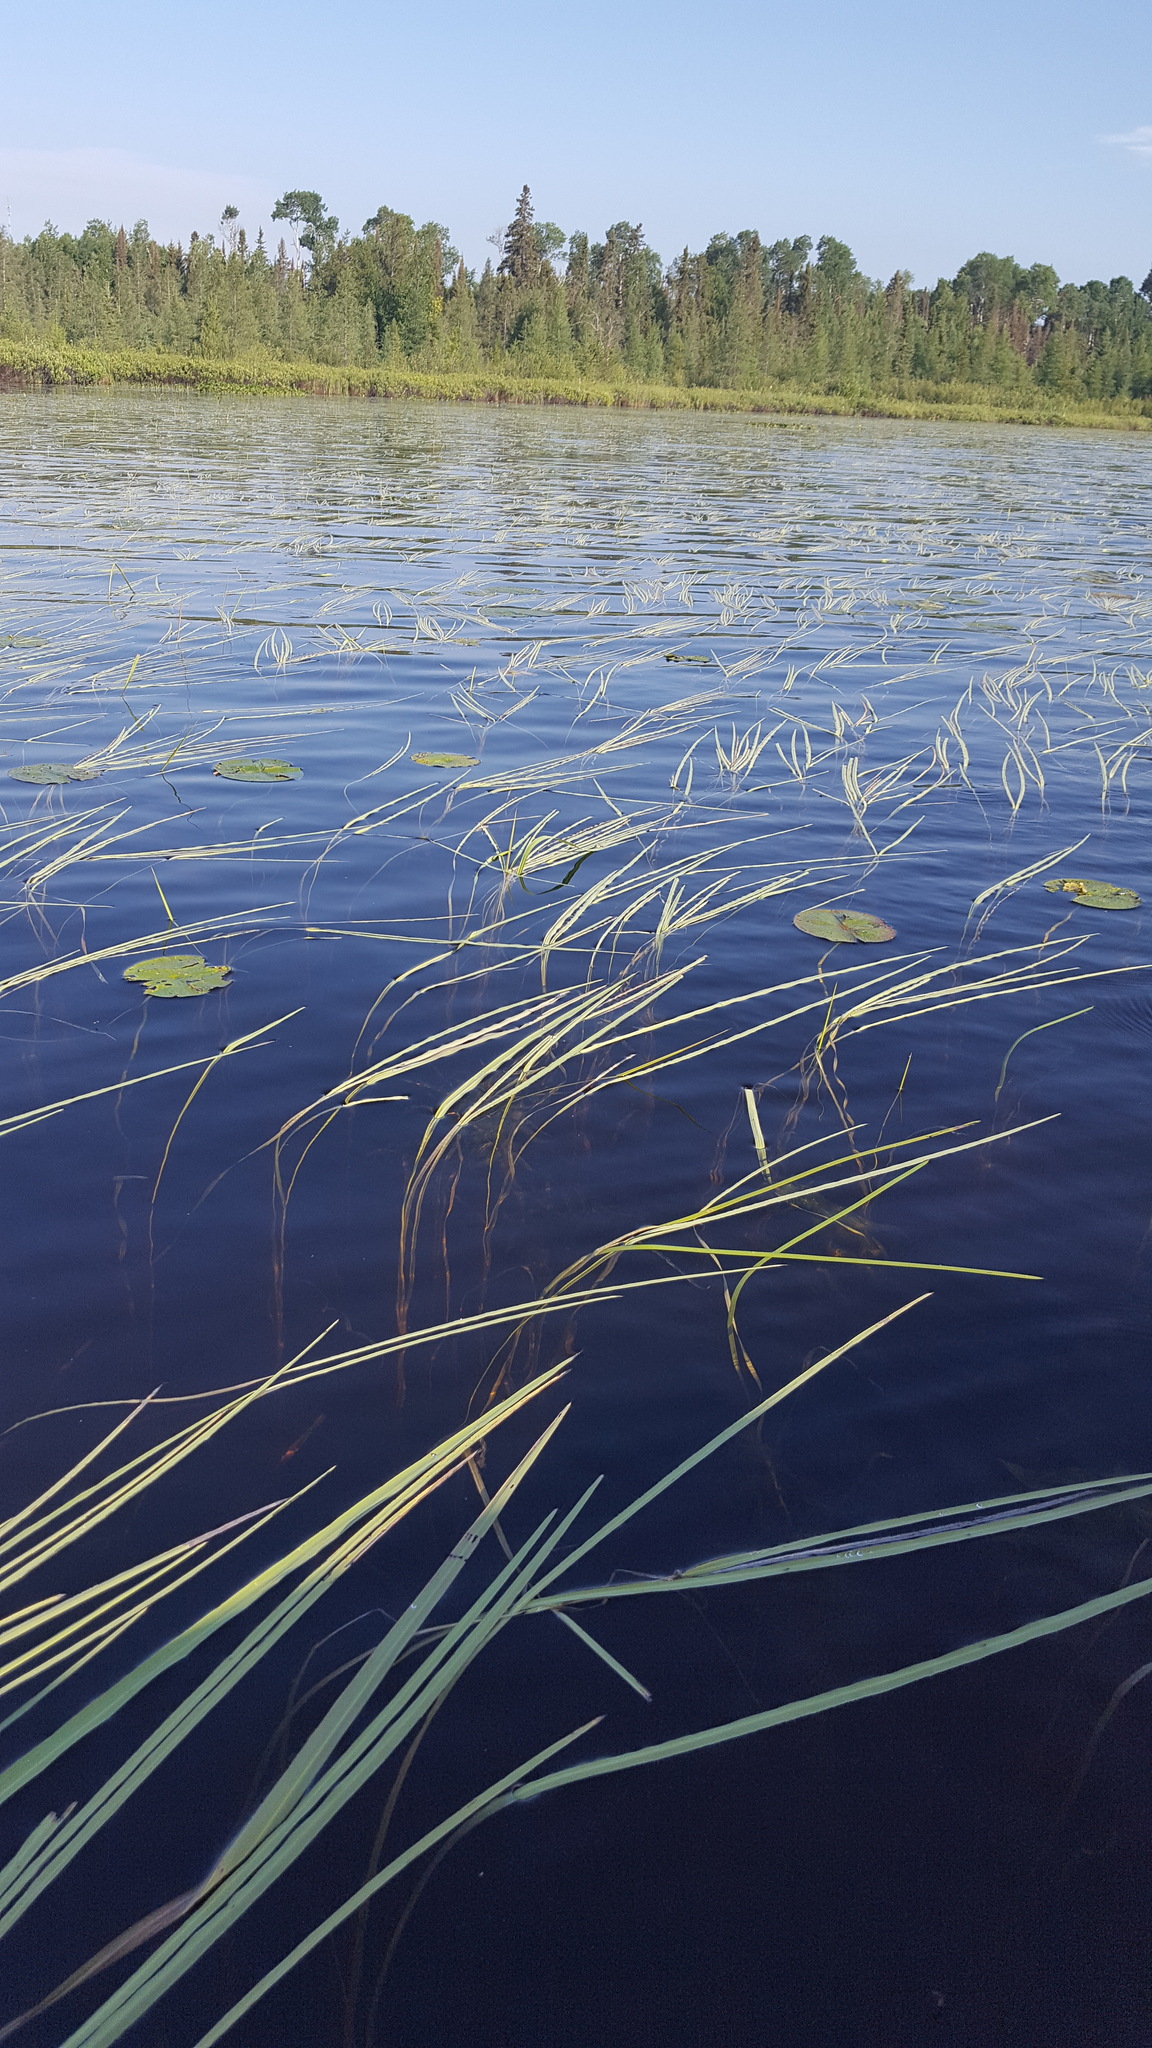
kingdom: Plantae
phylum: Tracheophyta
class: Liliopsida
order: Poales
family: Typhaceae
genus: Sparganium
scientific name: Sparganium fluctuans
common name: Floating burreed
